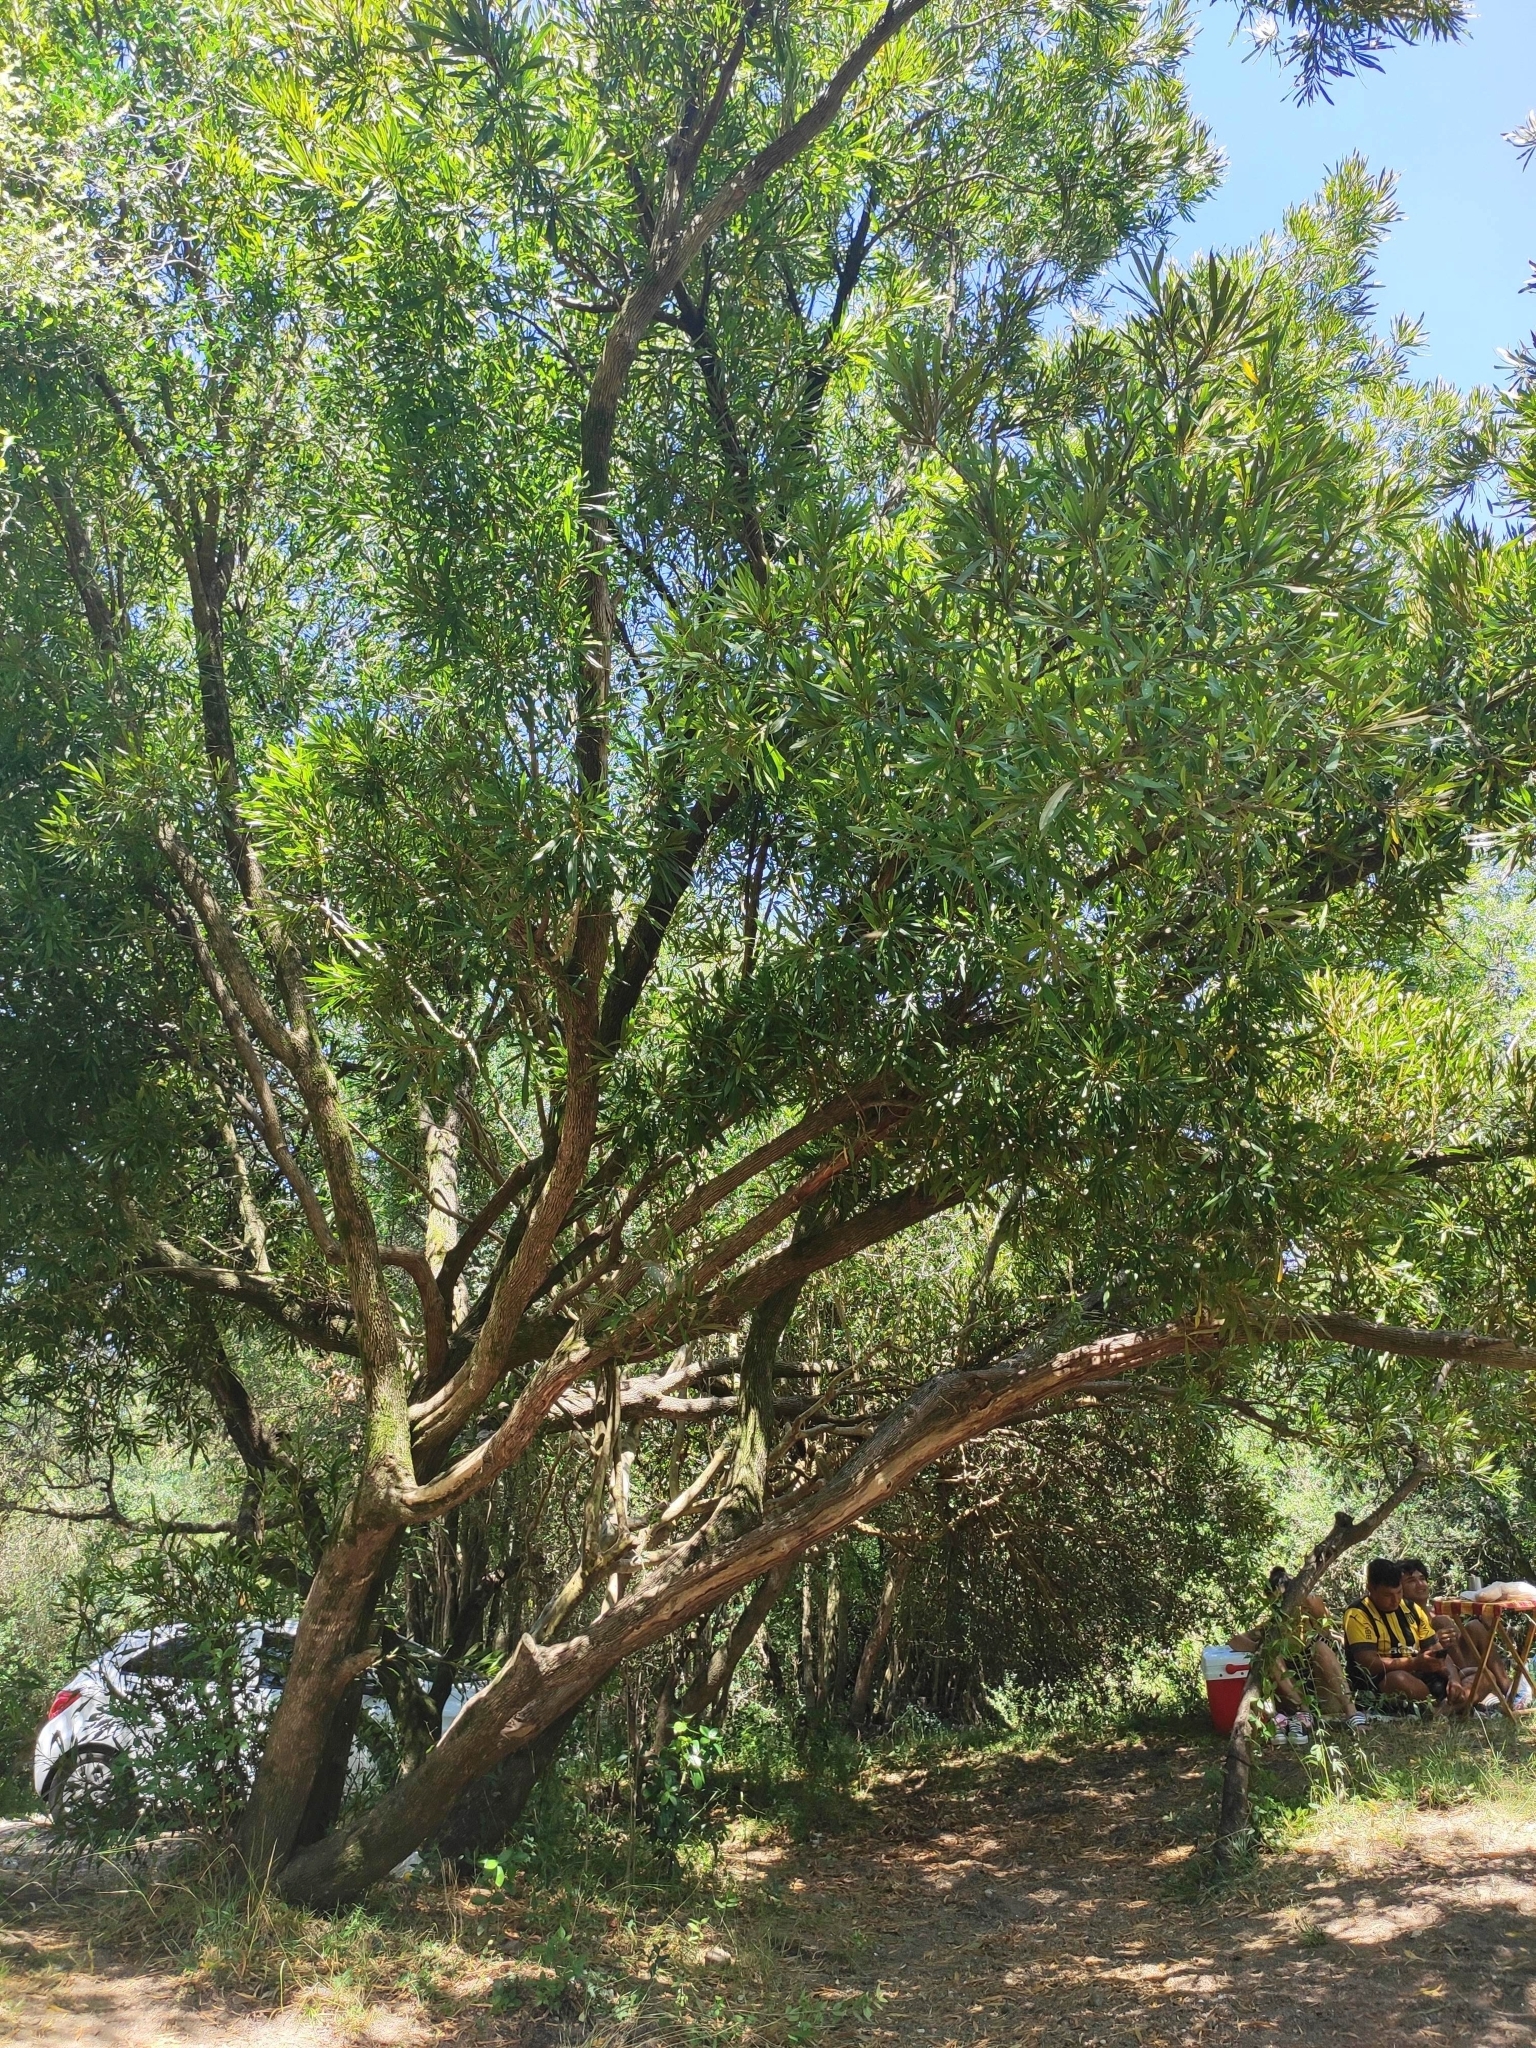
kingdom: Plantae
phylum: Tracheophyta
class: Magnoliopsida
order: Ericales
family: Sapotaceae
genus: Labatia
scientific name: Labatia salicifolia
